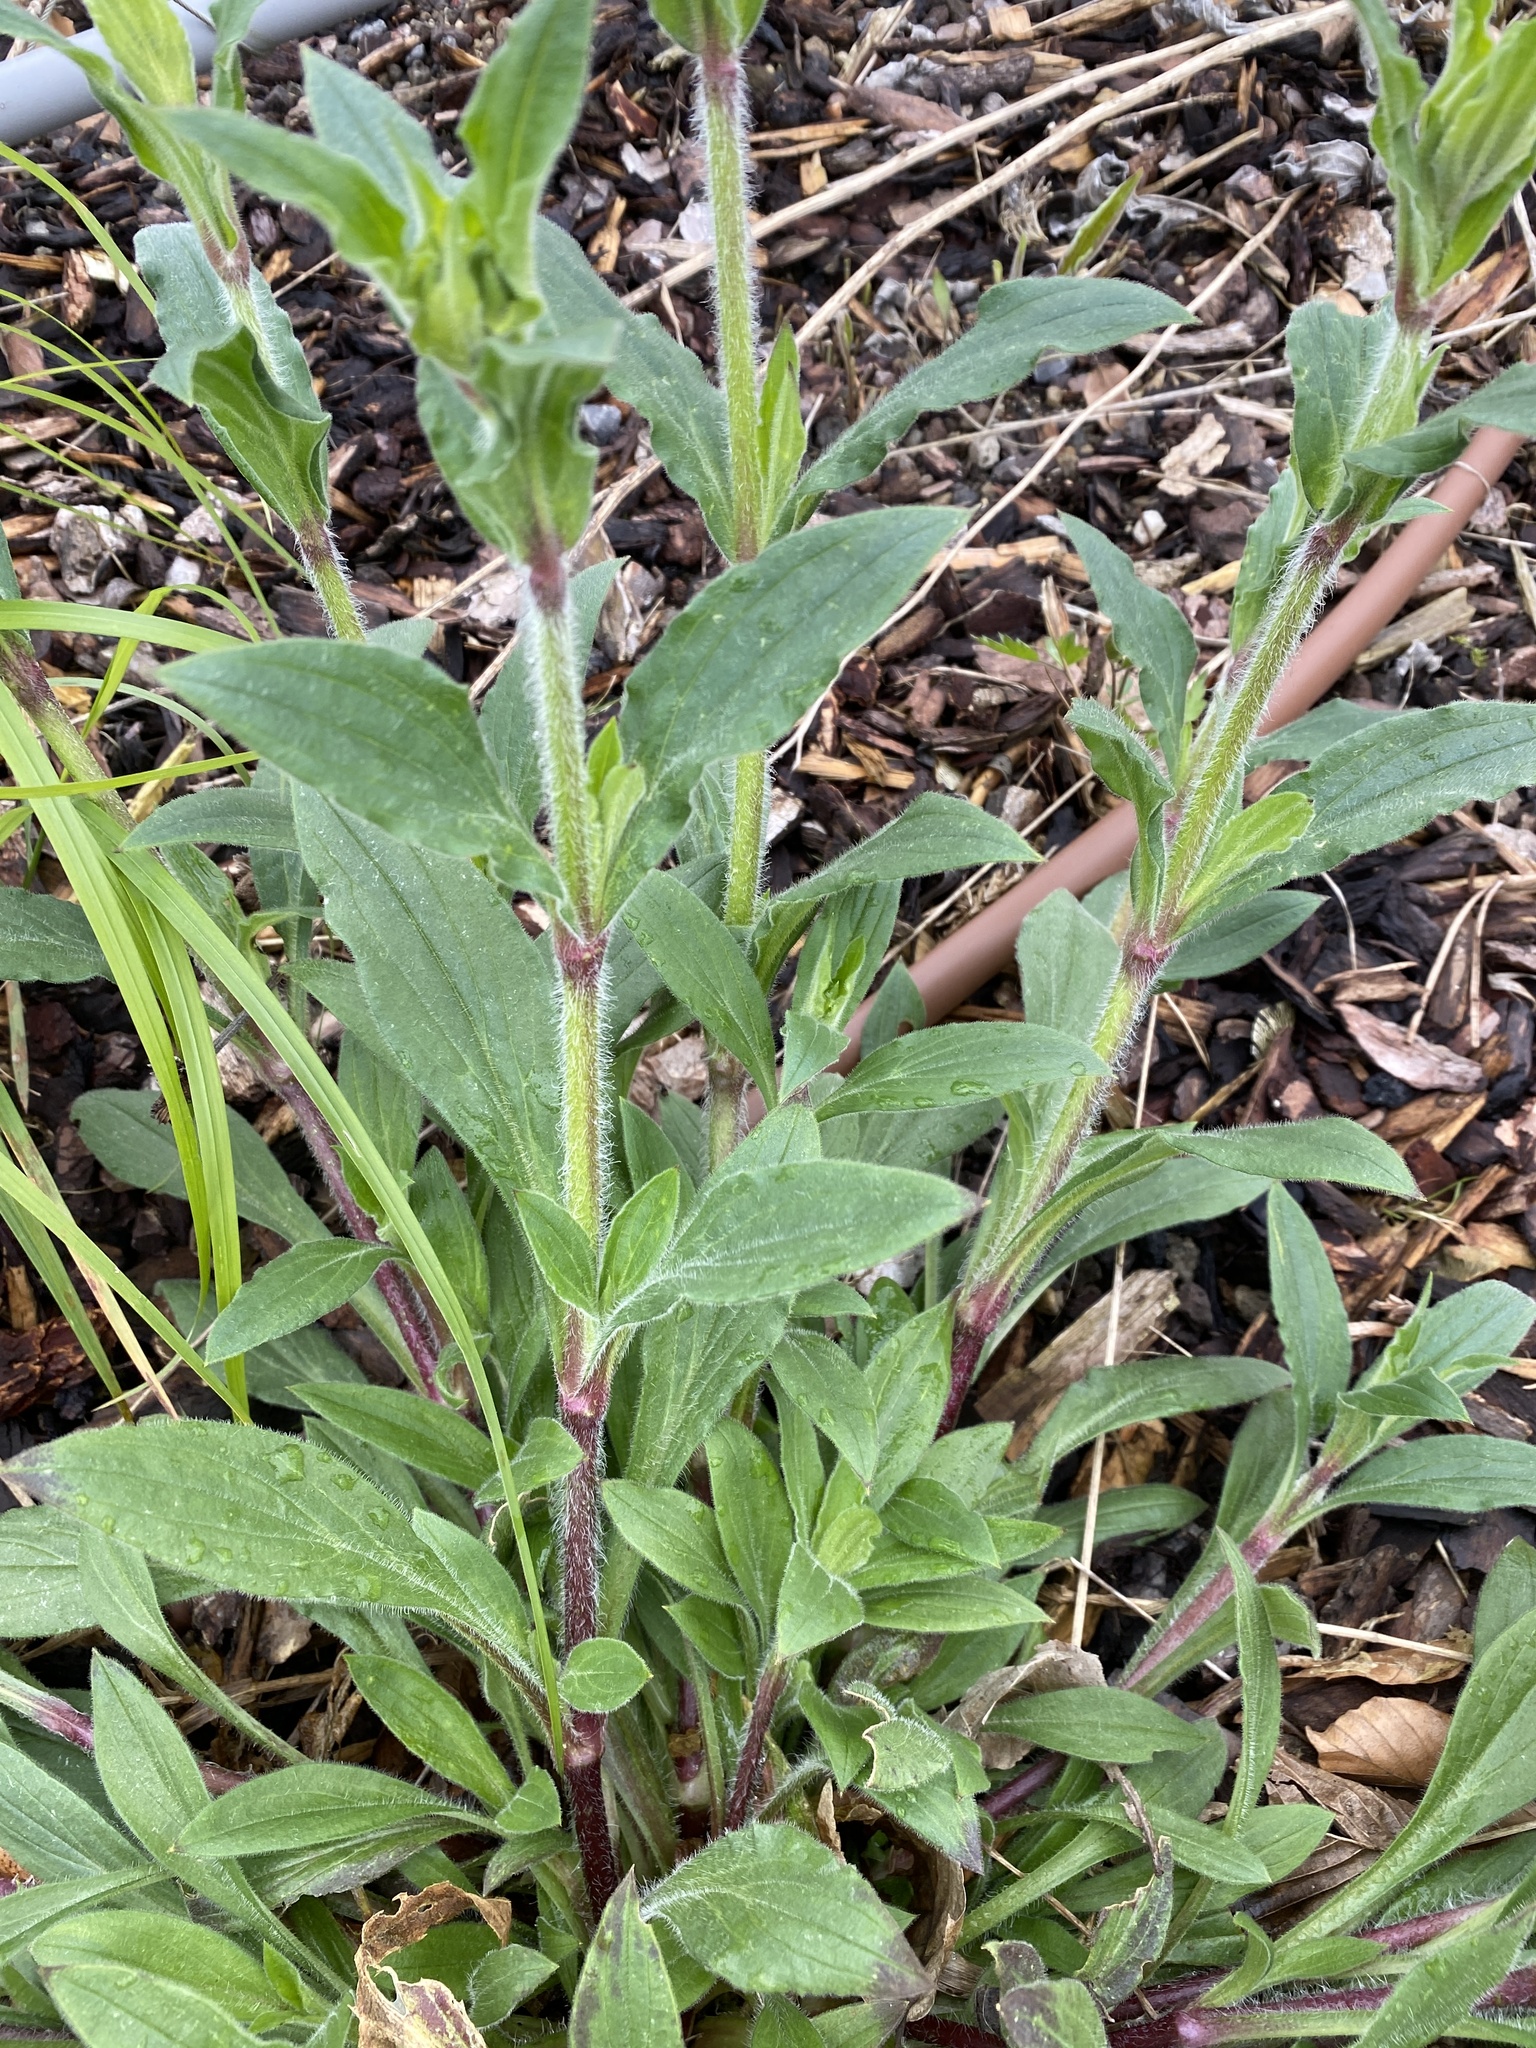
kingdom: Plantae
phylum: Tracheophyta
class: Magnoliopsida
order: Caryophyllales
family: Caryophyllaceae
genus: Silene
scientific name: Silene latifolia
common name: White campion
